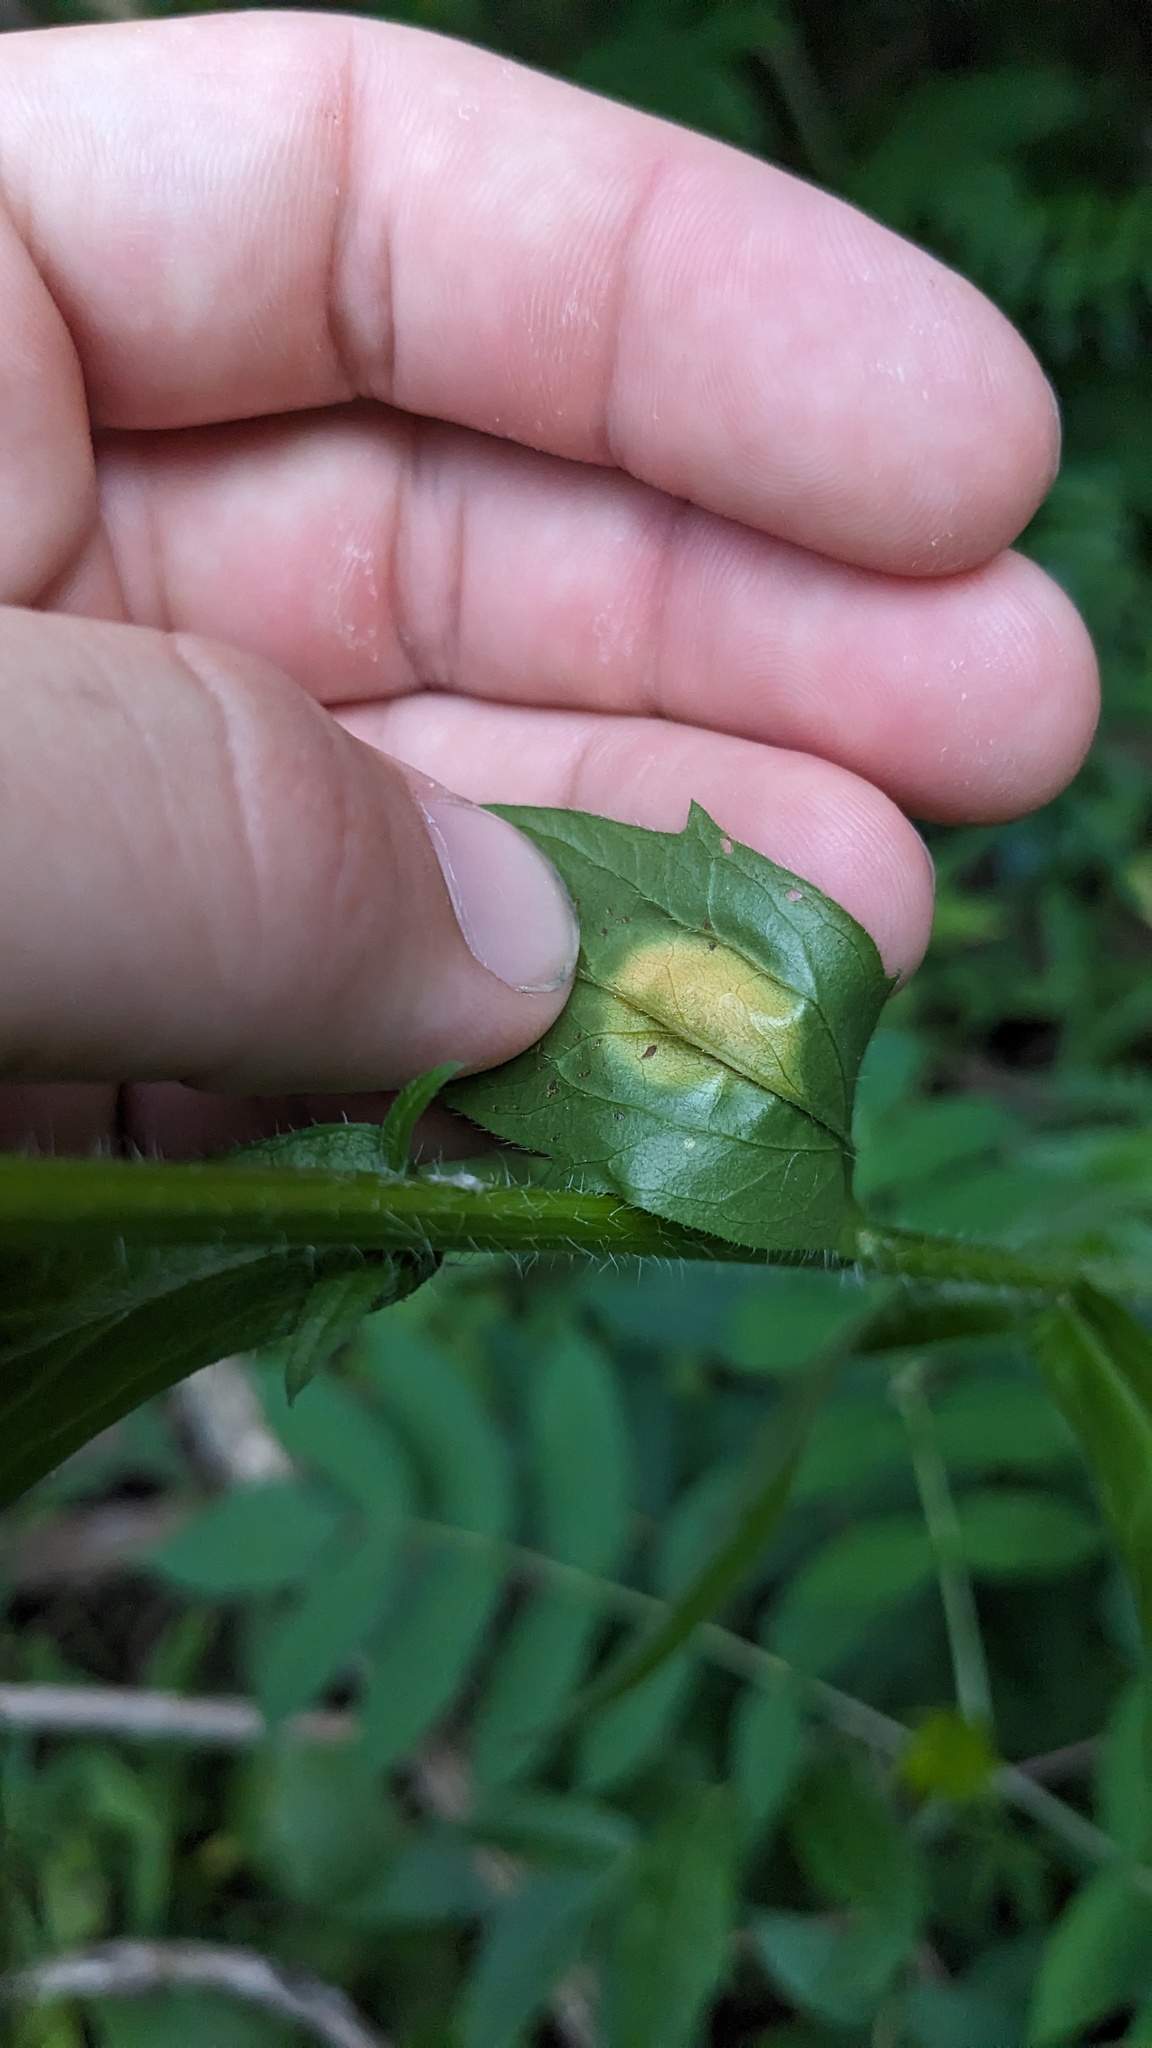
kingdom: Animalia
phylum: Arthropoda
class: Insecta
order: Diptera
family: Cecidomyiidae
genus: Asteromyia
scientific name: Asteromyia modesta
